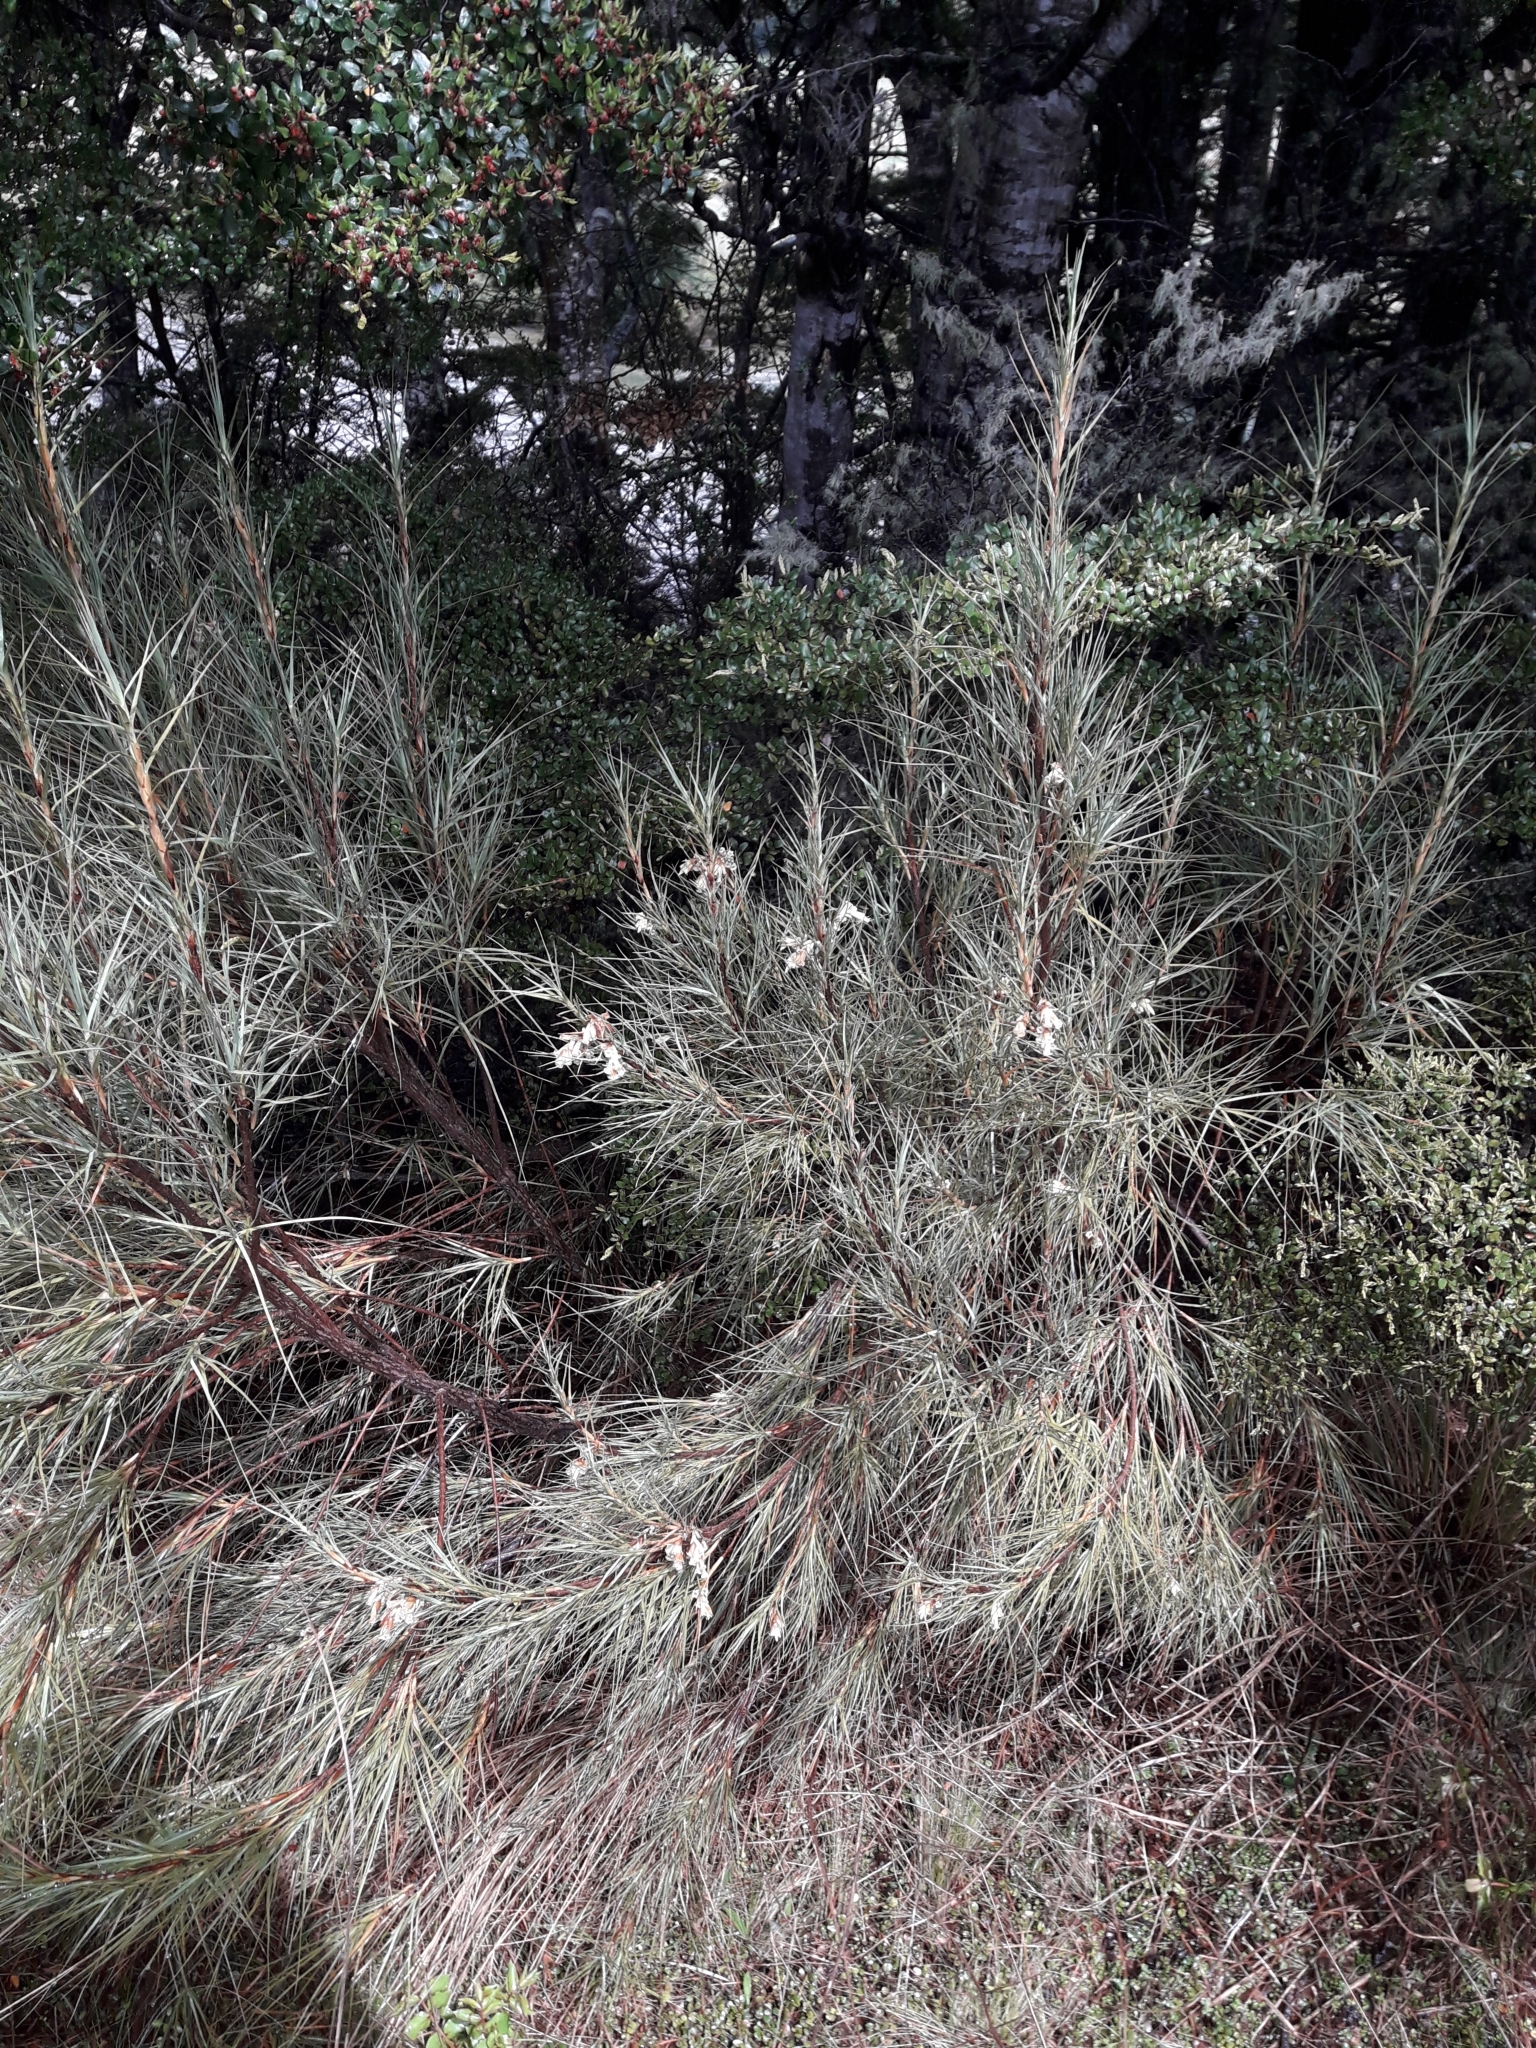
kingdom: Plantae
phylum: Tracheophyta
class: Magnoliopsida
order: Ericales
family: Ericaceae
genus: Dracophyllum
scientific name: Dracophyllum longifolium
